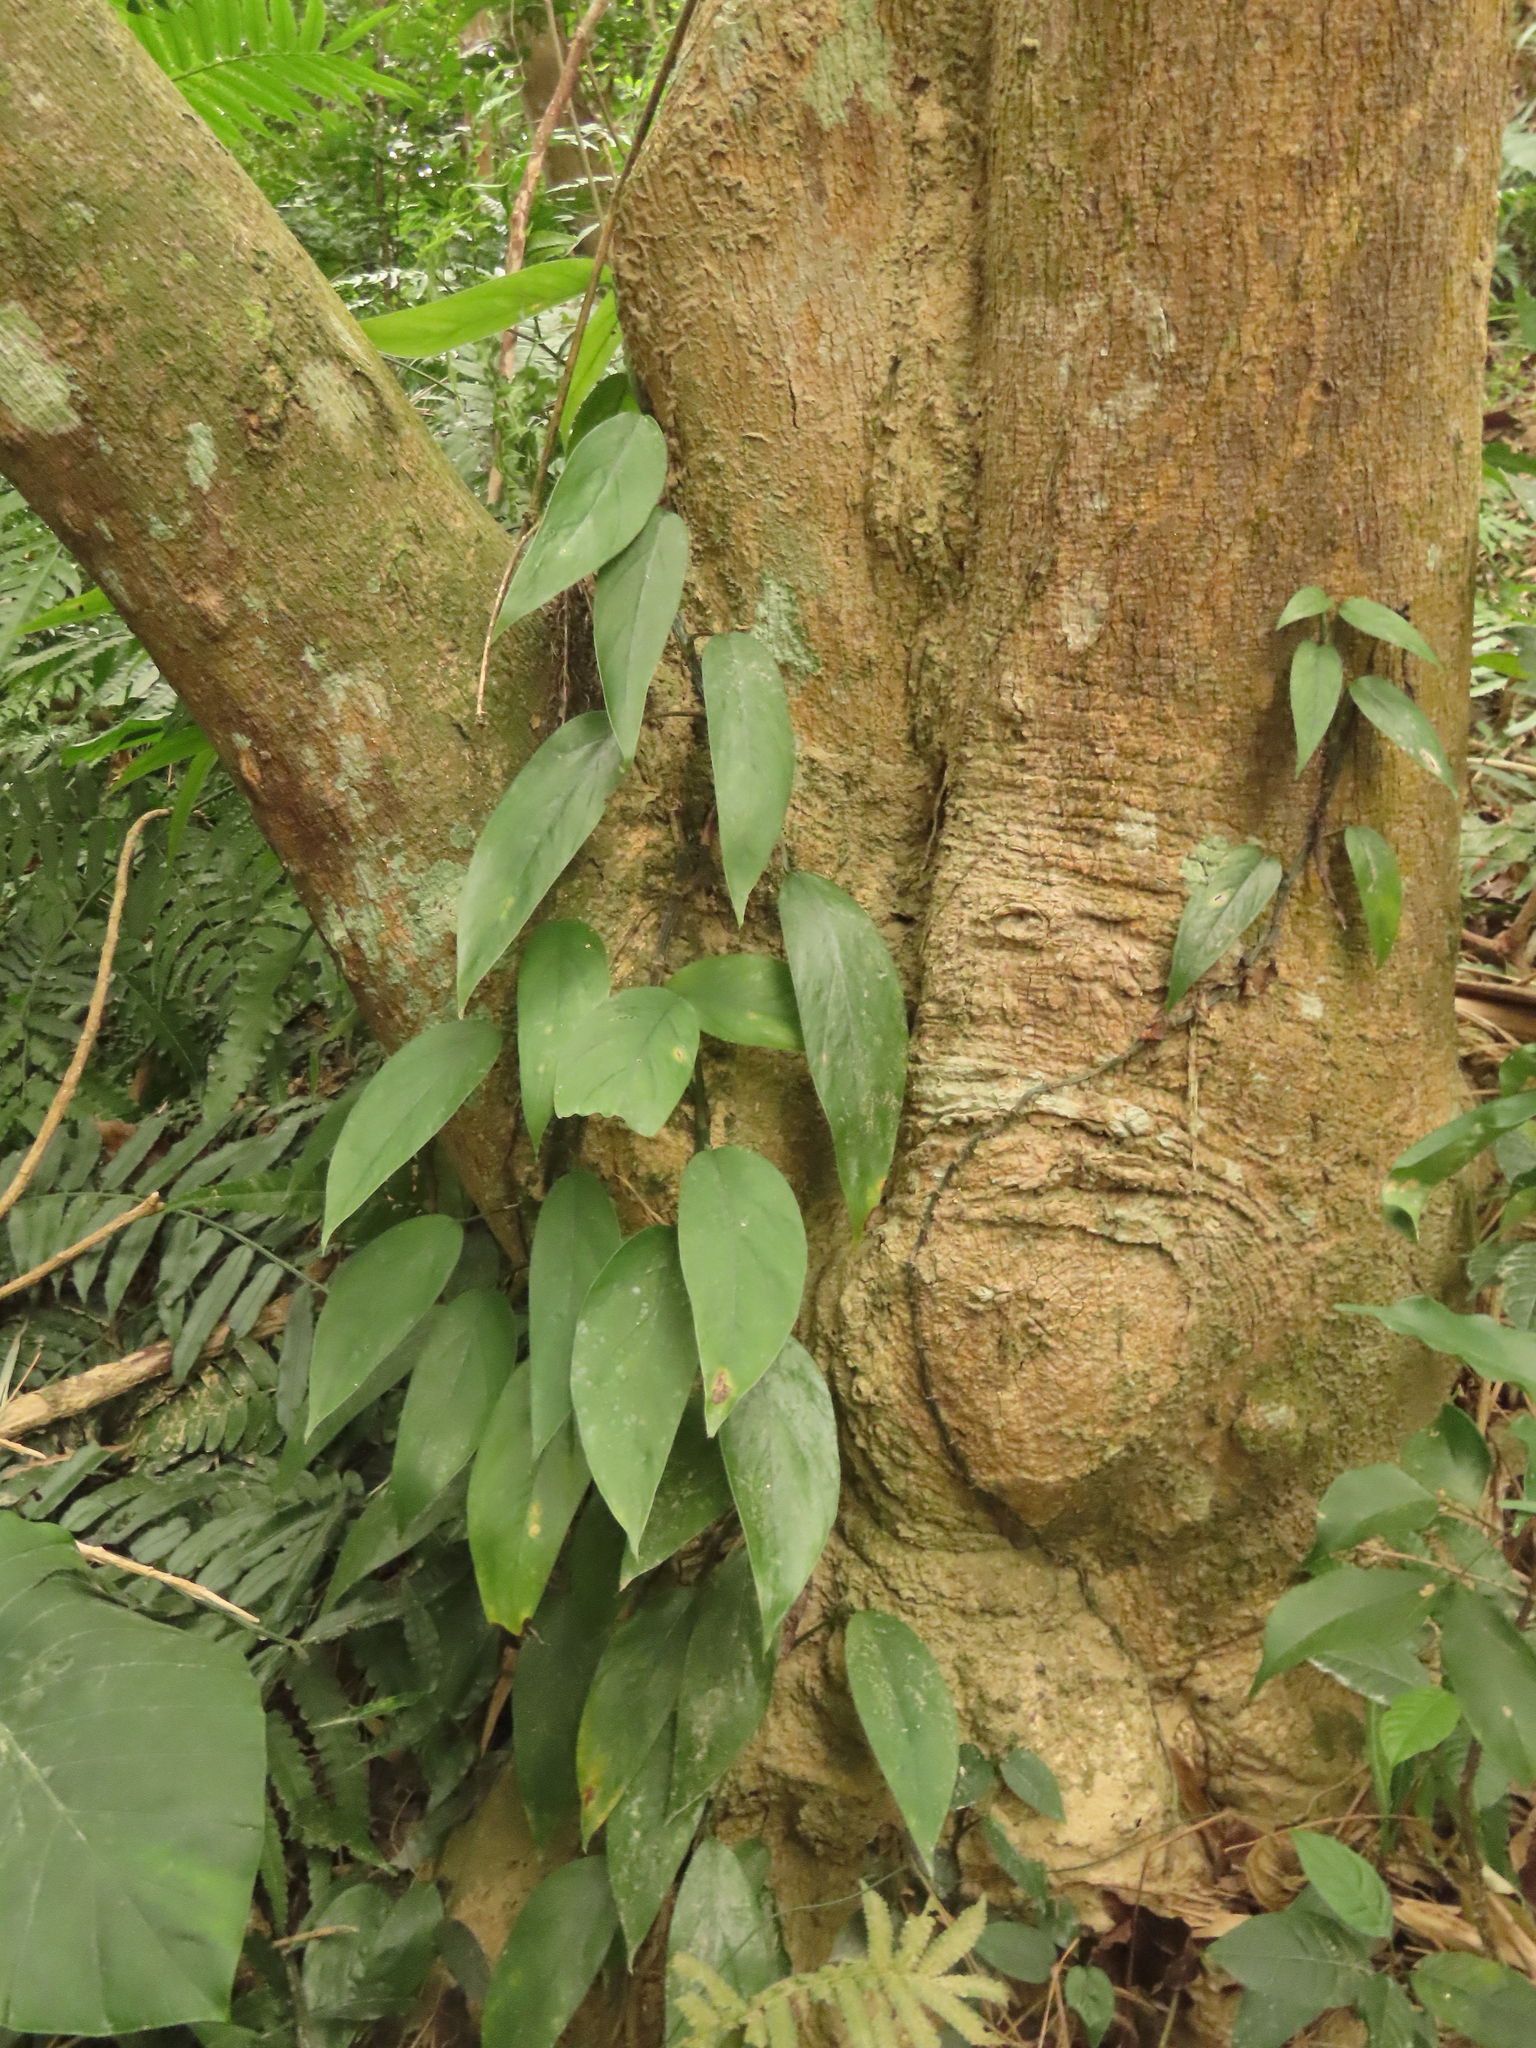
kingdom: Plantae
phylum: Tracheophyta
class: Liliopsida
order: Alismatales
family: Araceae
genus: Epipremnum
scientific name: Epipremnum pinnatum
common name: Centipede tongavine
